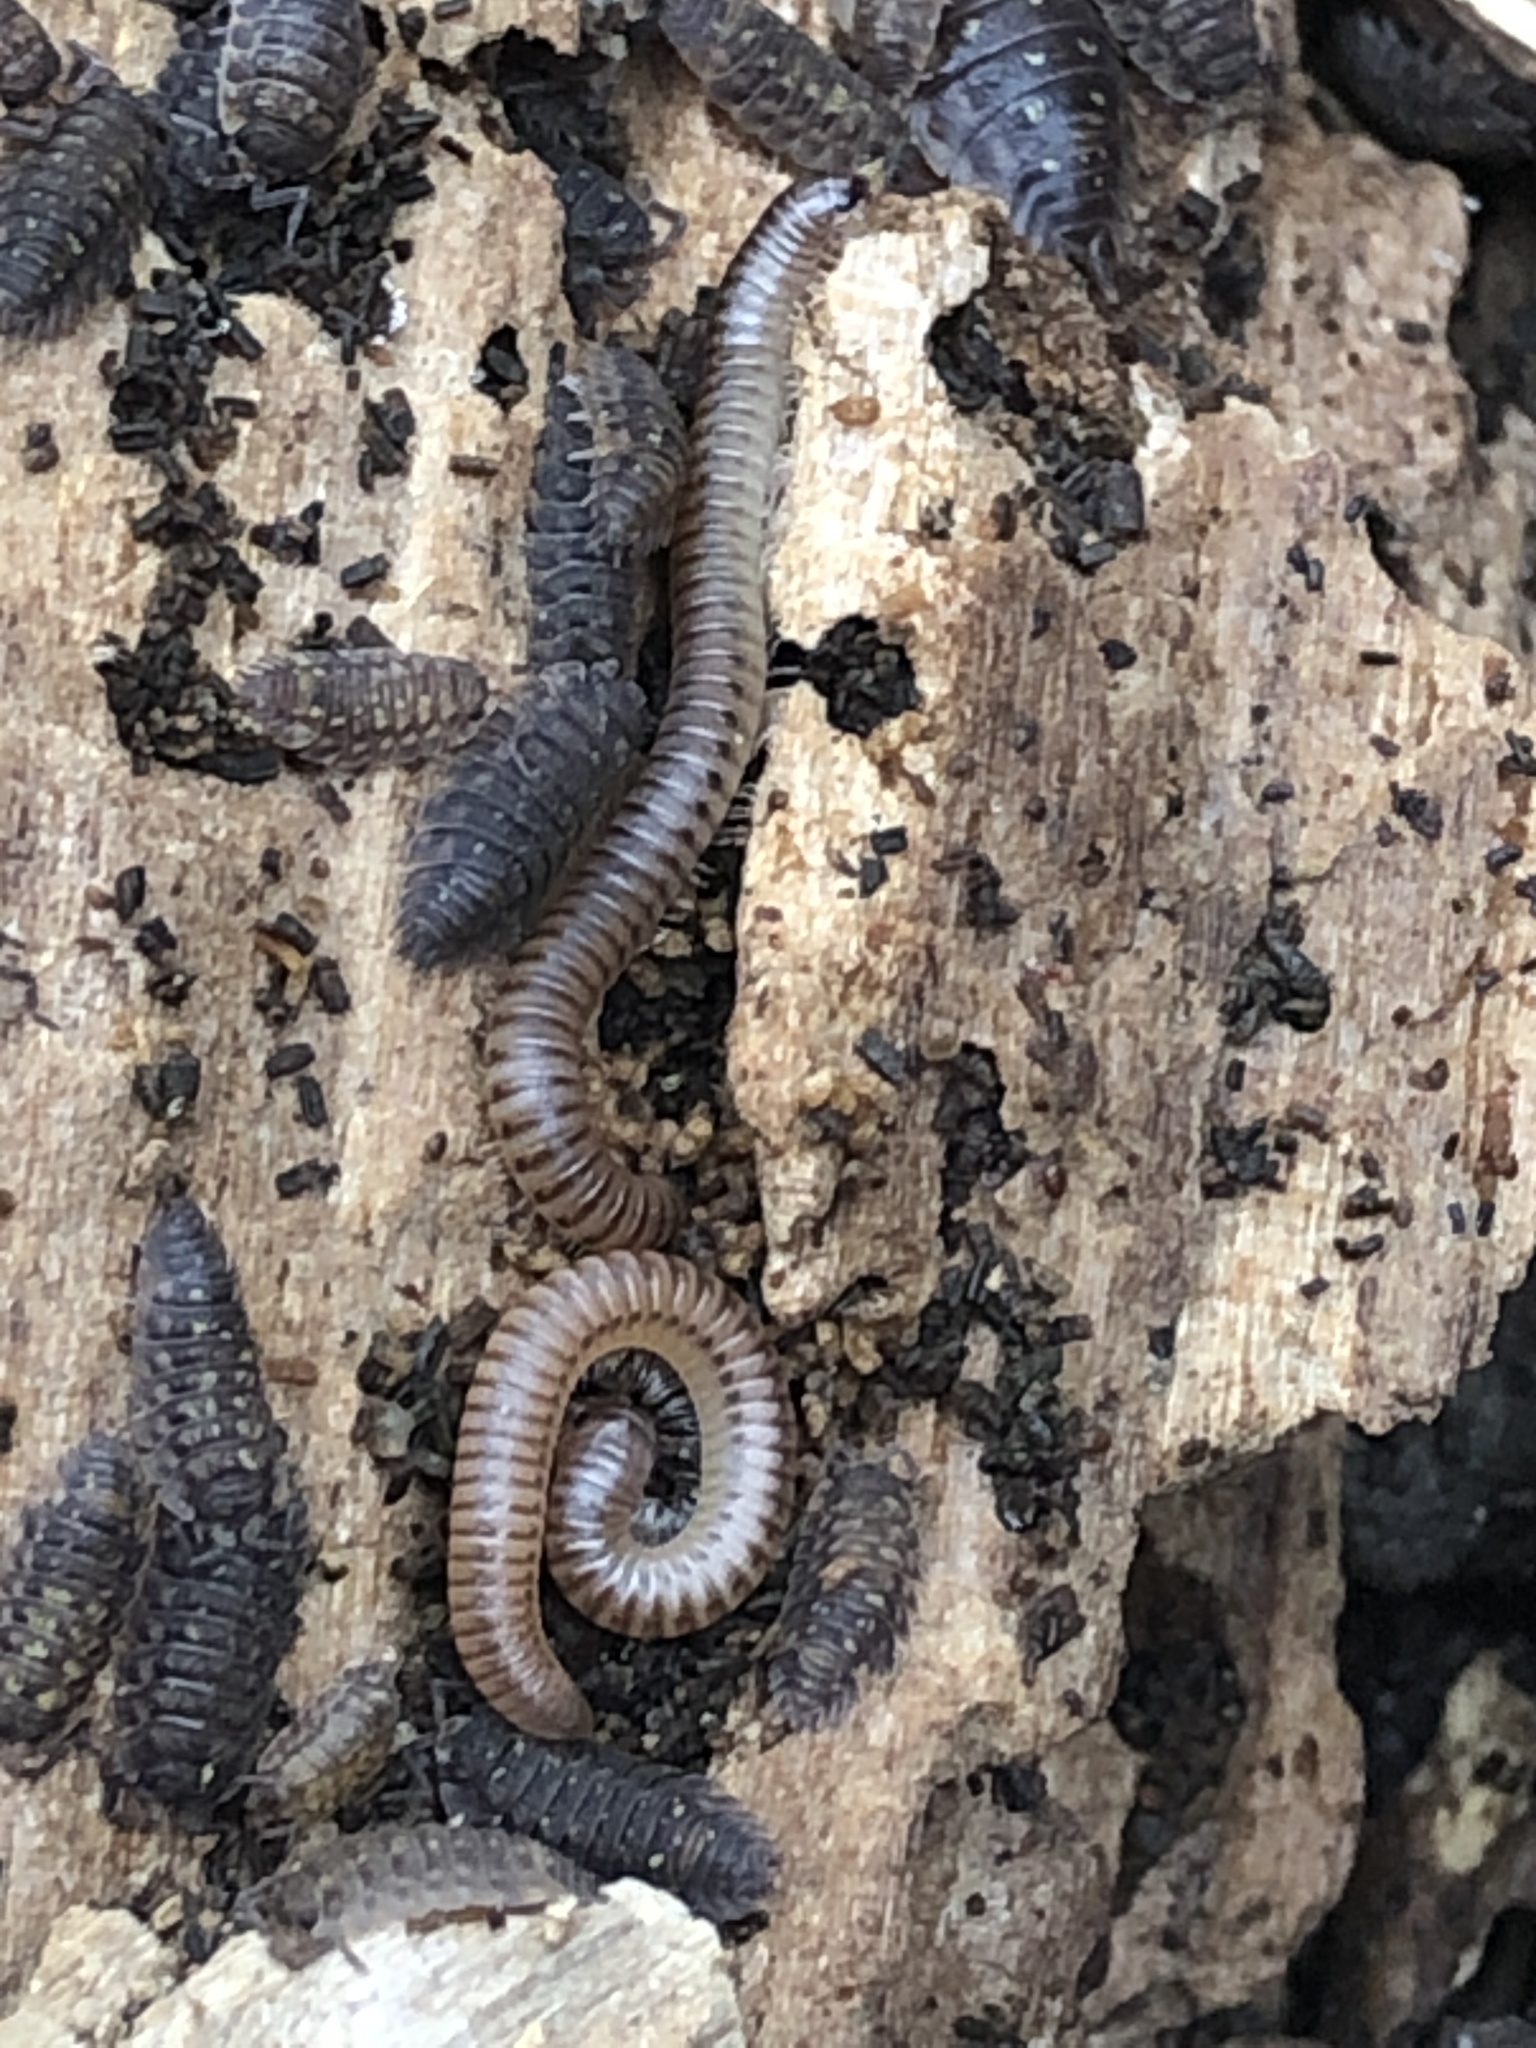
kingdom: Animalia
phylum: Arthropoda
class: Diplopoda
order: Julida
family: Julidae
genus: Cylindroiulus
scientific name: Cylindroiulus punctatus
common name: Blunt-tailed millipede
